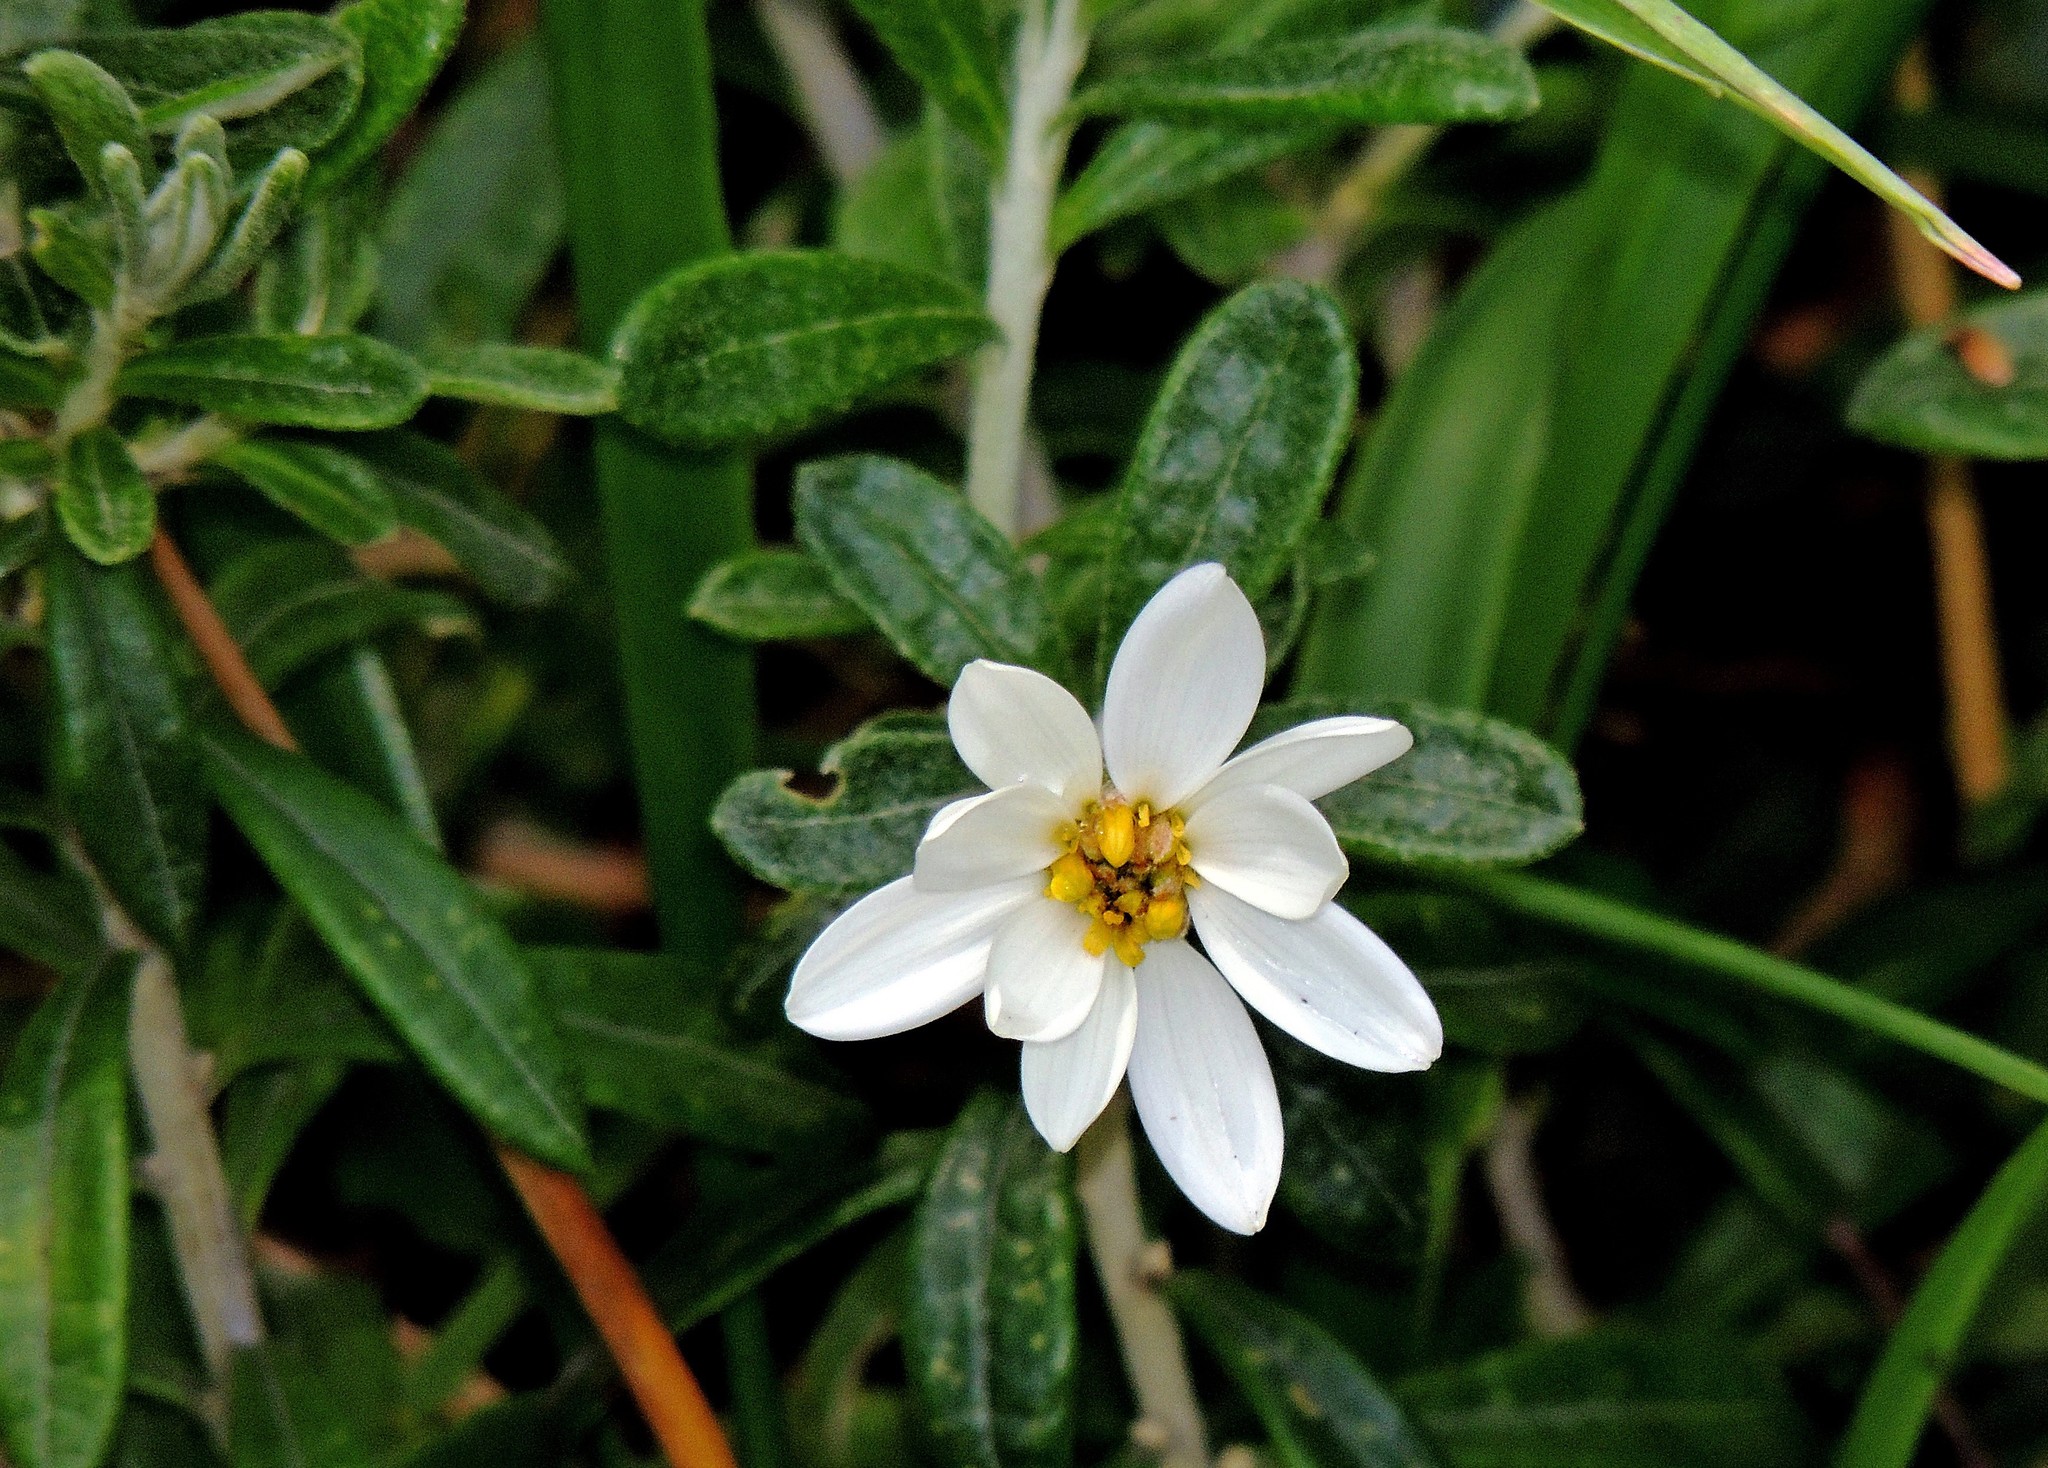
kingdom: Plantae
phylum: Tracheophyta
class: Magnoliopsida
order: Asterales
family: Asteraceae
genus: Chiliotrichum
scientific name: Chiliotrichum diffusum
